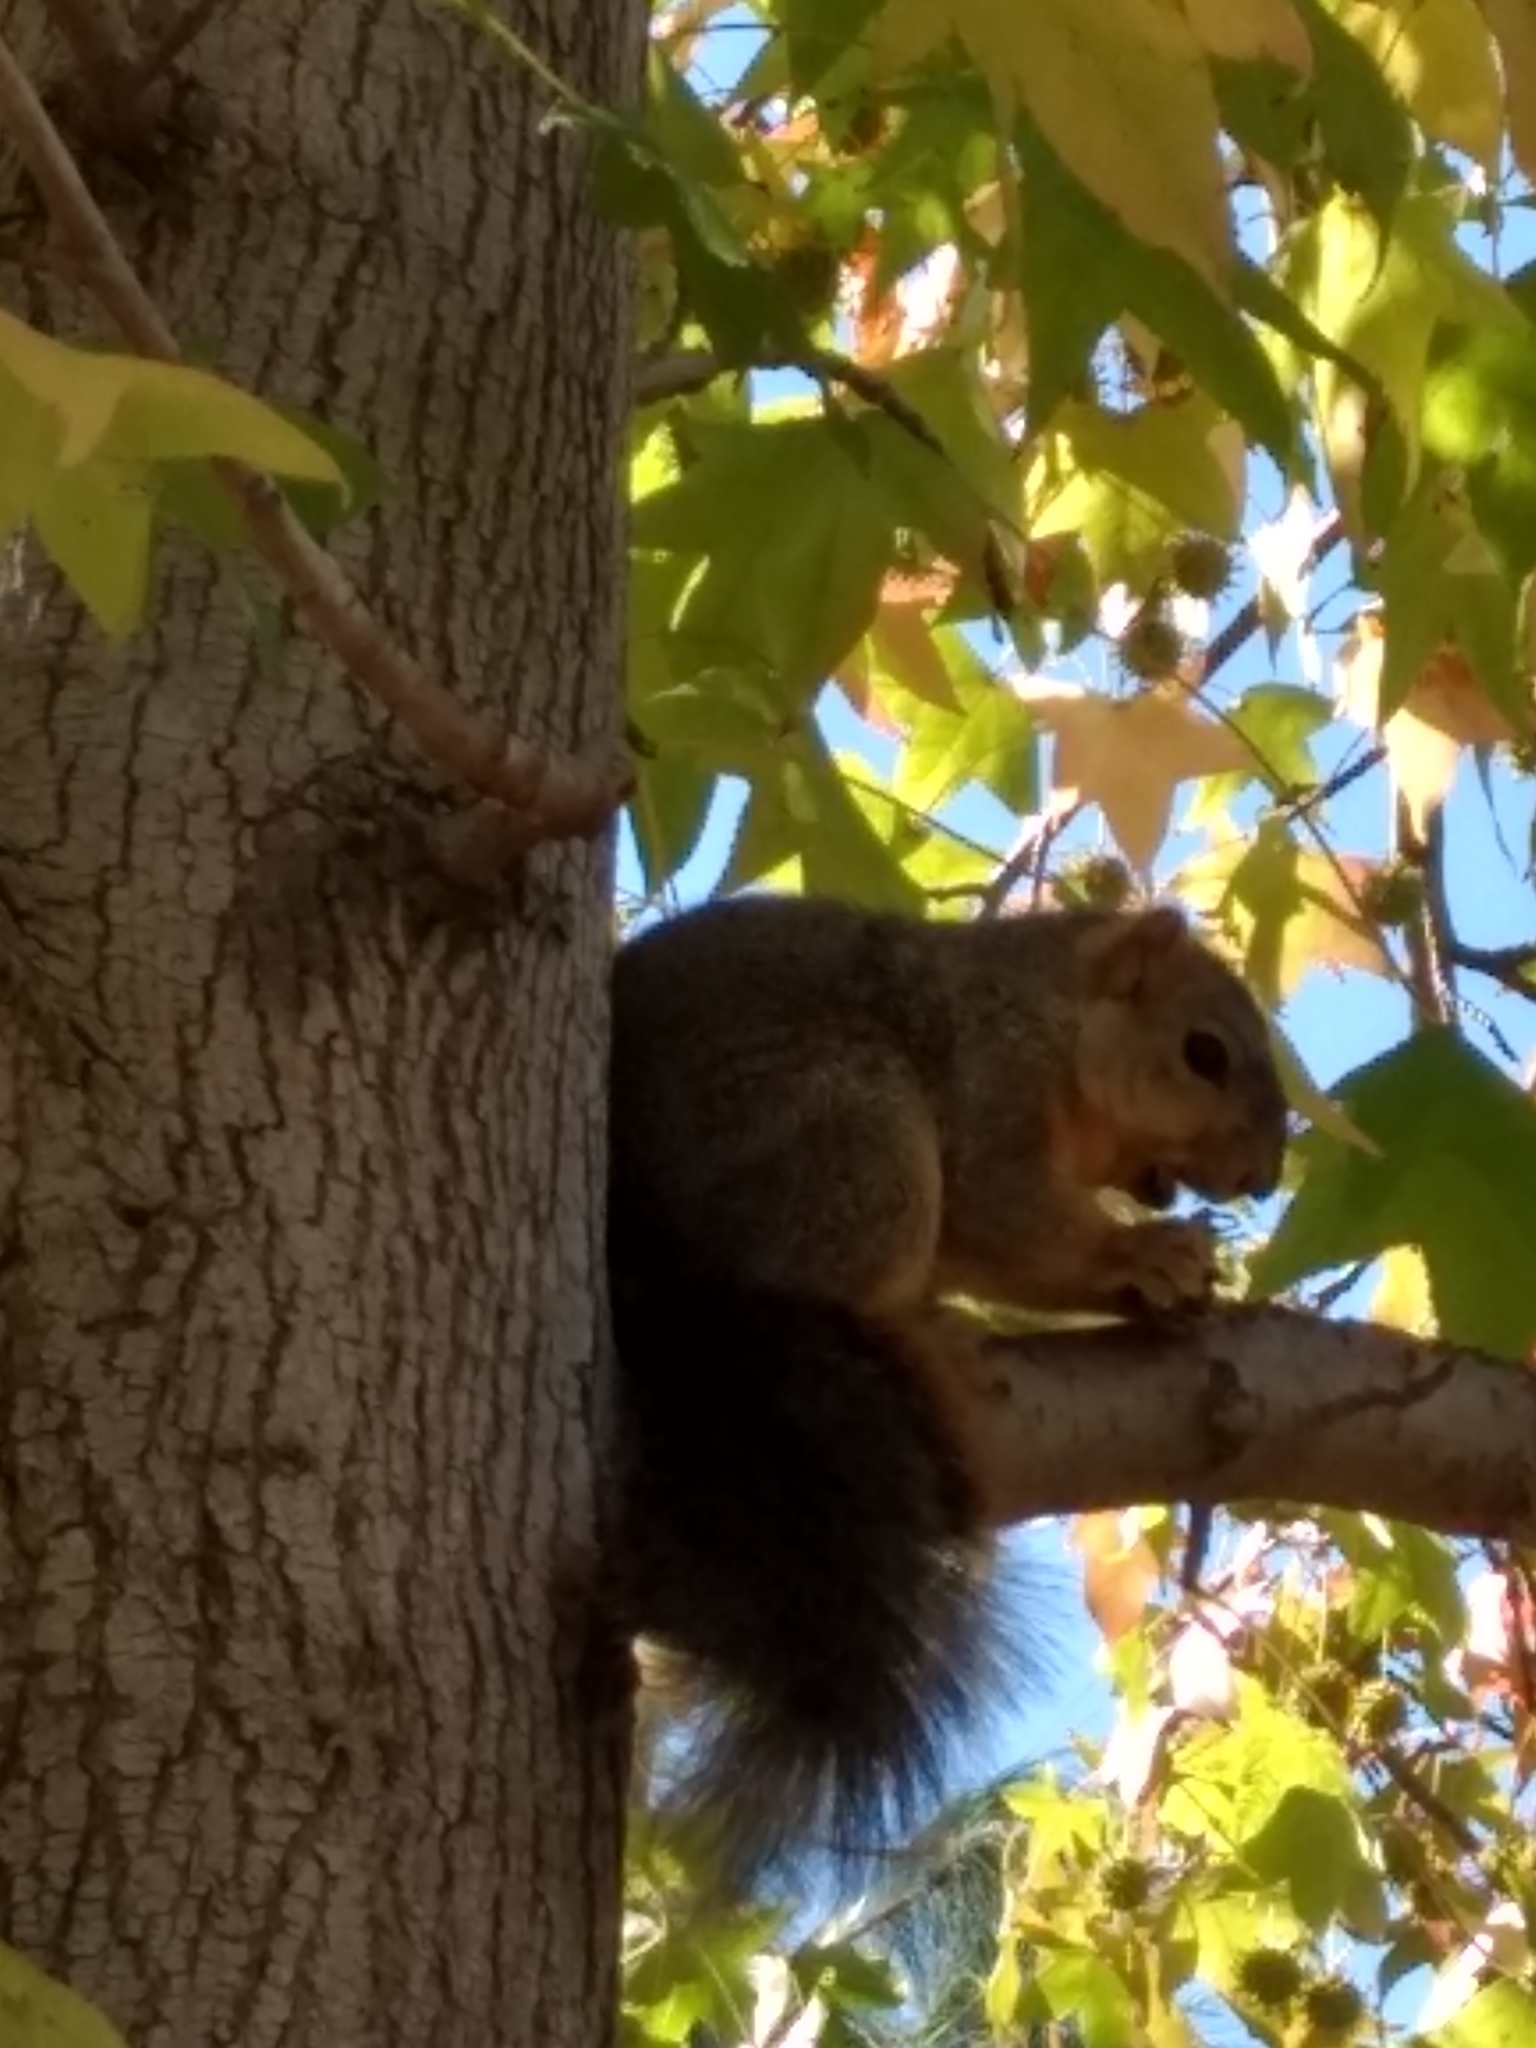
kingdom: Animalia
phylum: Chordata
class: Mammalia
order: Rodentia
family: Sciuridae
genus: Sciurus
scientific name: Sciurus niger
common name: Fox squirrel
